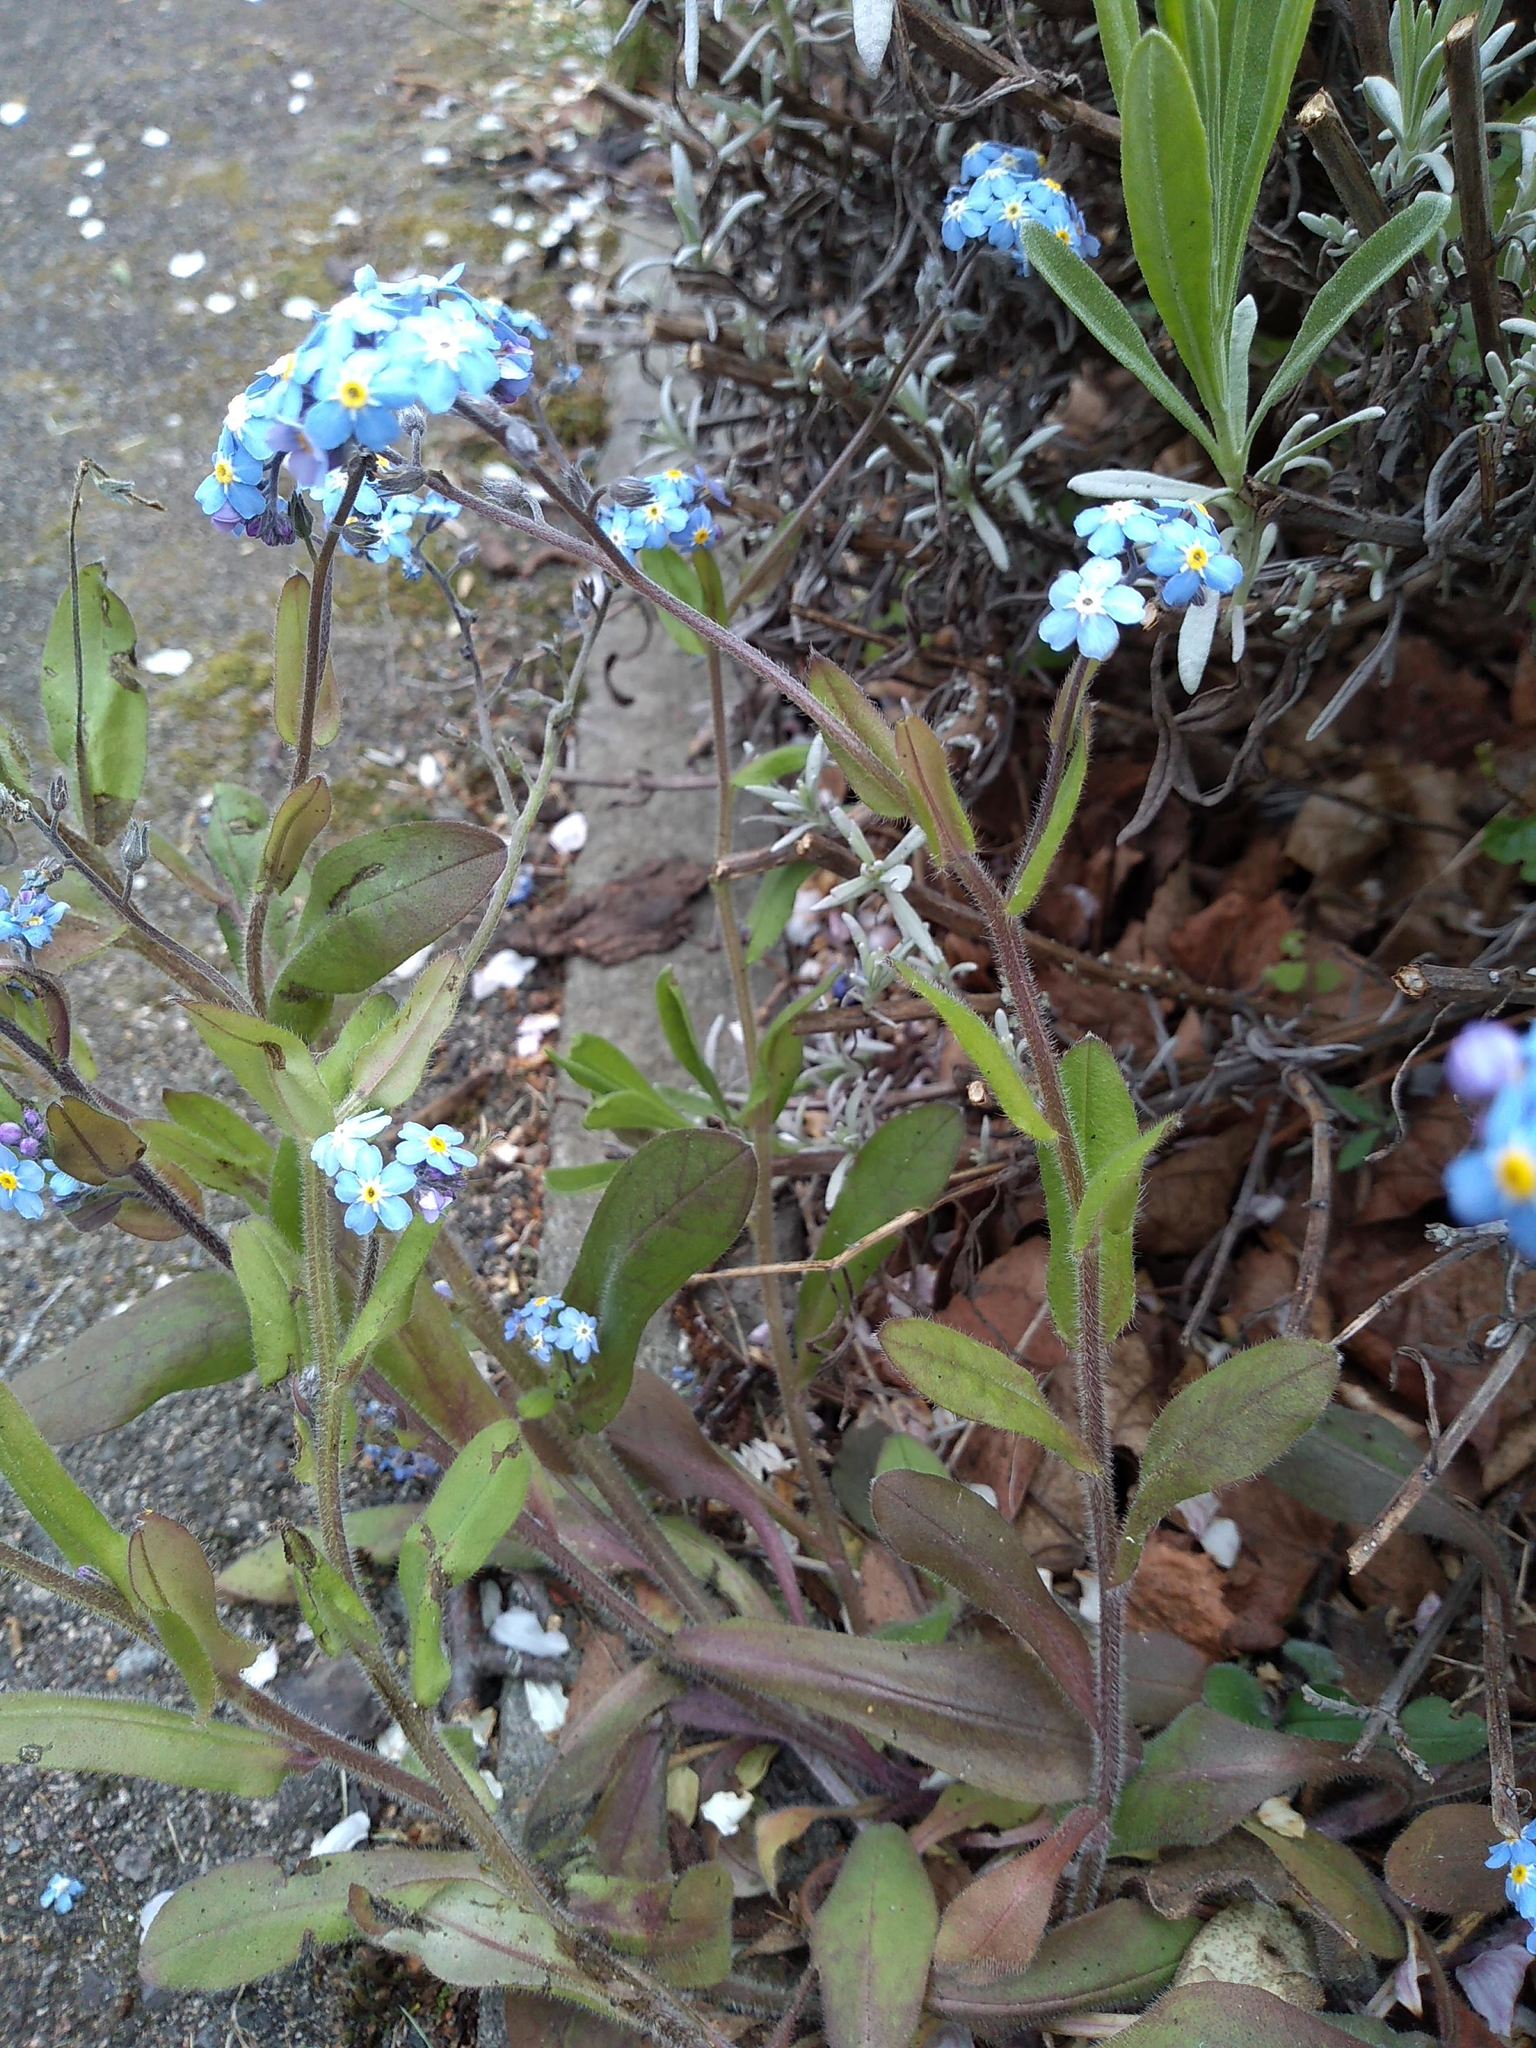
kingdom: Plantae
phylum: Tracheophyta
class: Magnoliopsida
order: Boraginales
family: Boraginaceae
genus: Myosotis
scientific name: Myosotis sylvatica
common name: Wood forget-me-not
